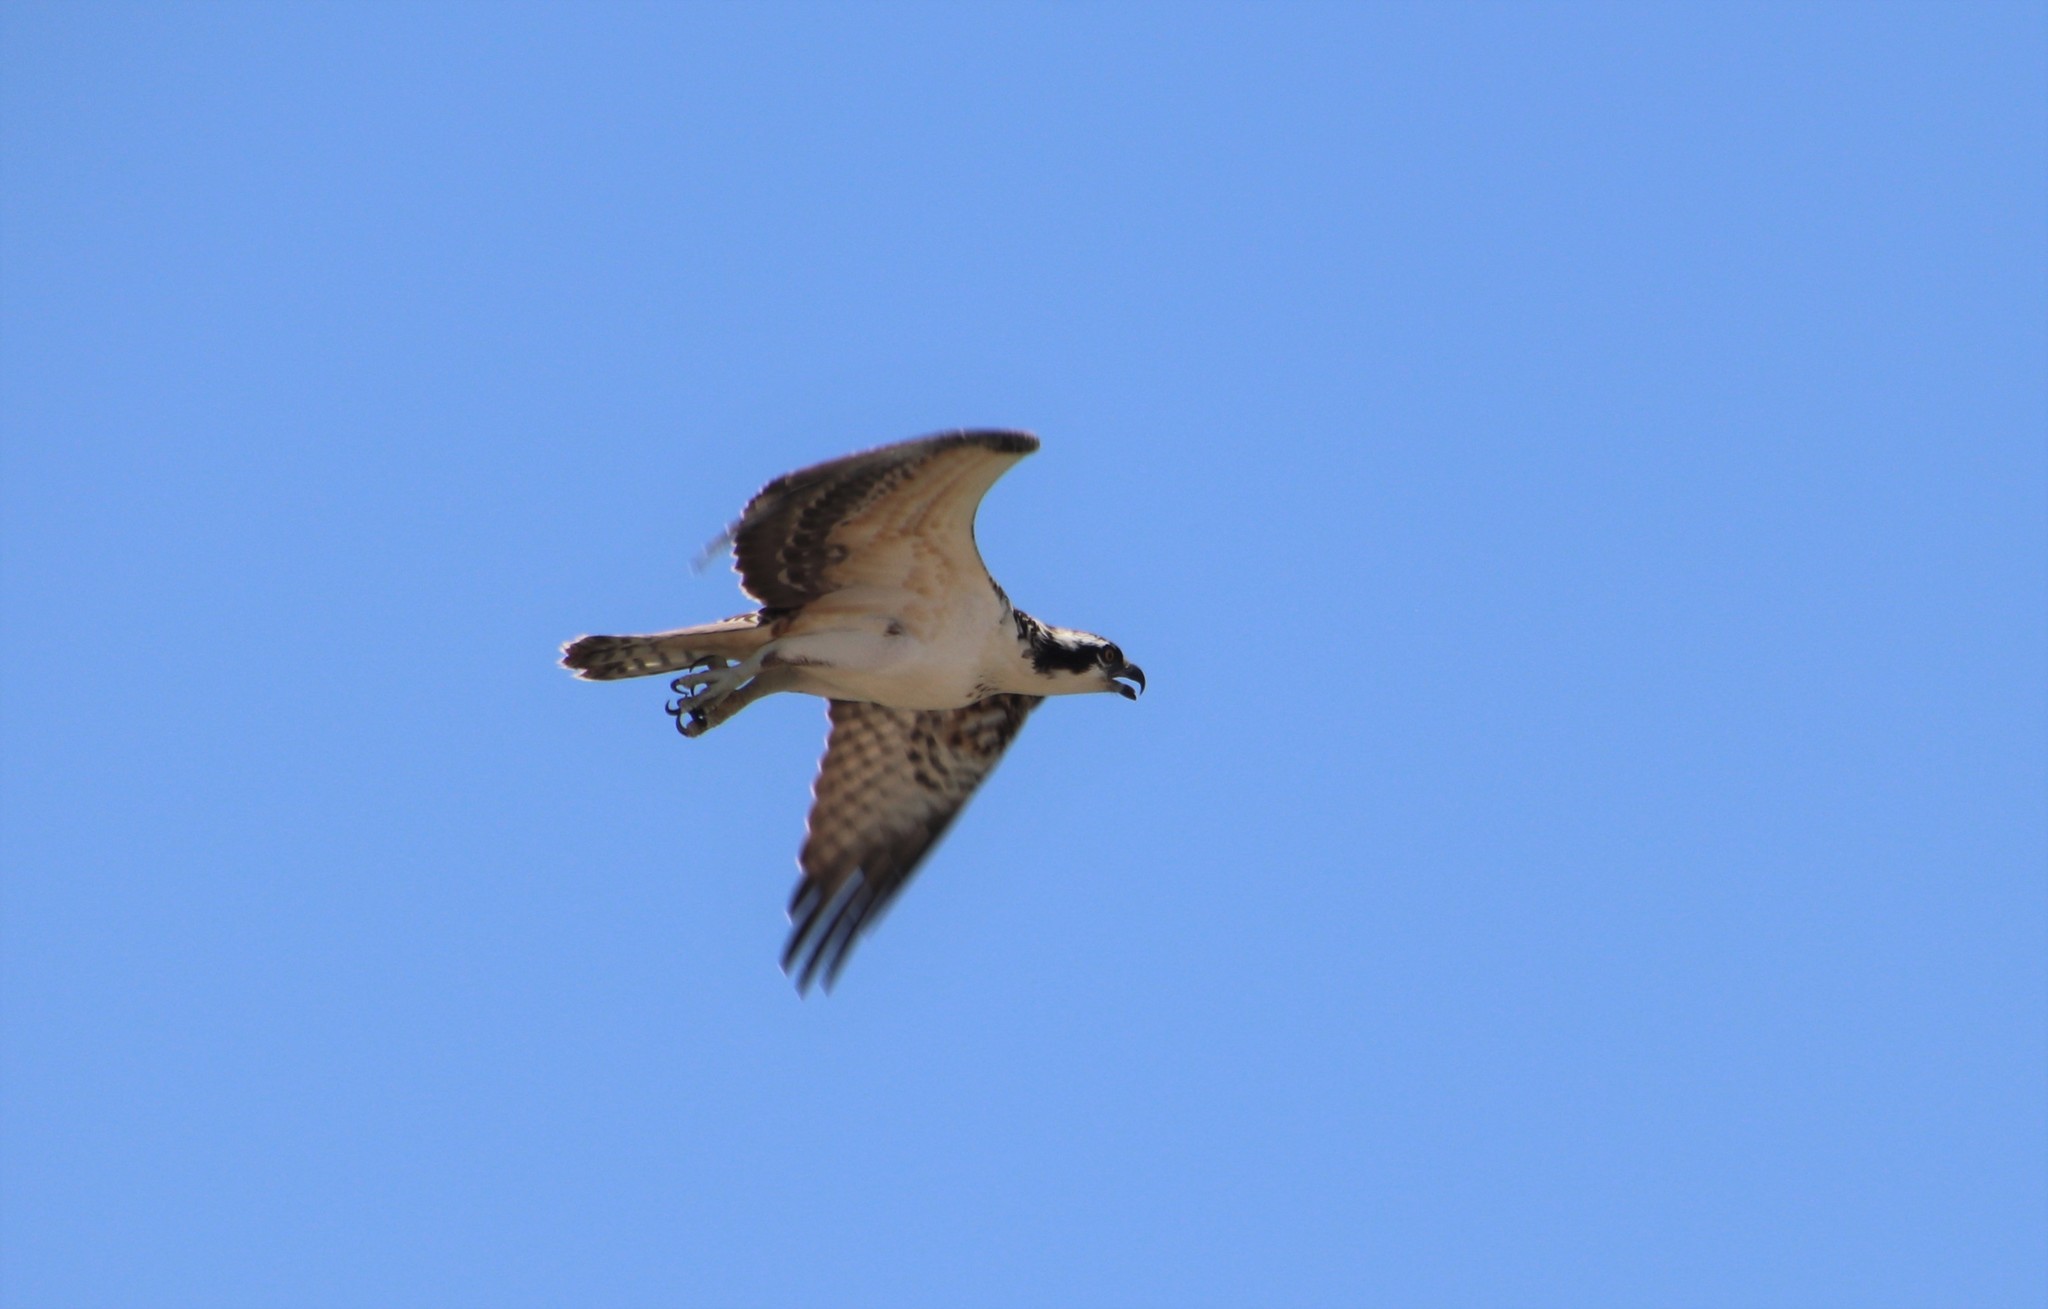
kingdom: Animalia
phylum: Chordata
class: Aves
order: Accipitriformes
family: Pandionidae
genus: Pandion
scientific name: Pandion haliaetus
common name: Osprey
